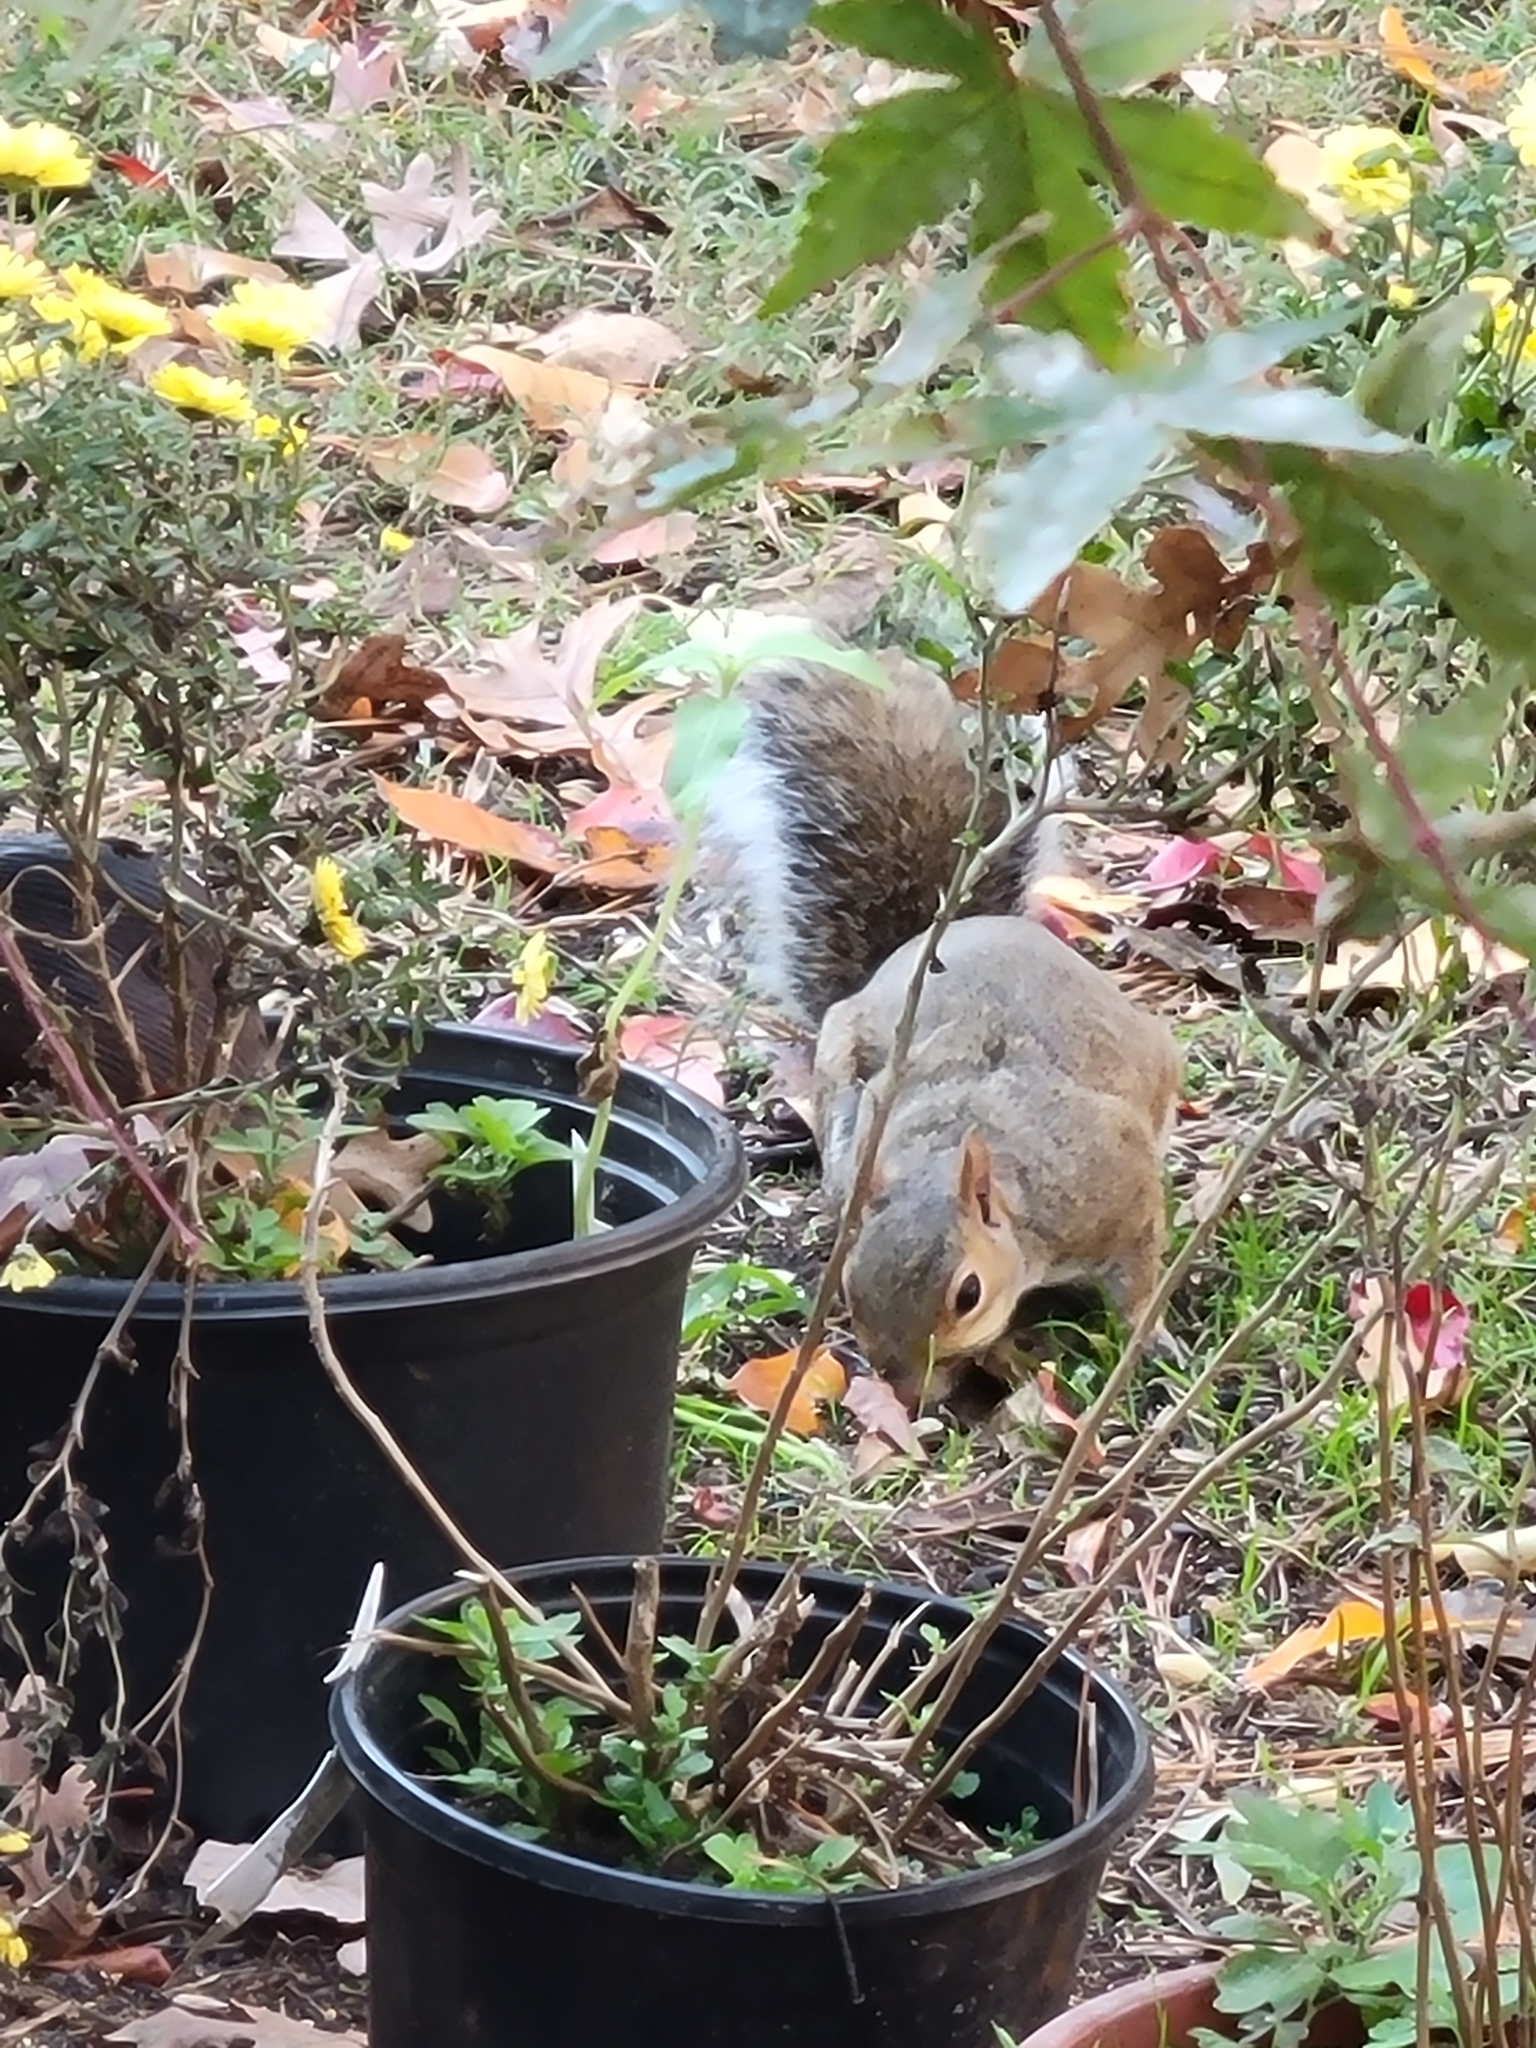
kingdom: Animalia
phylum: Chordata
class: Mammalia
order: Rodentia
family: Sciuridae
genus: Sciurus
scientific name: Sciurus carolinensis
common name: Eastern gray squirrel
